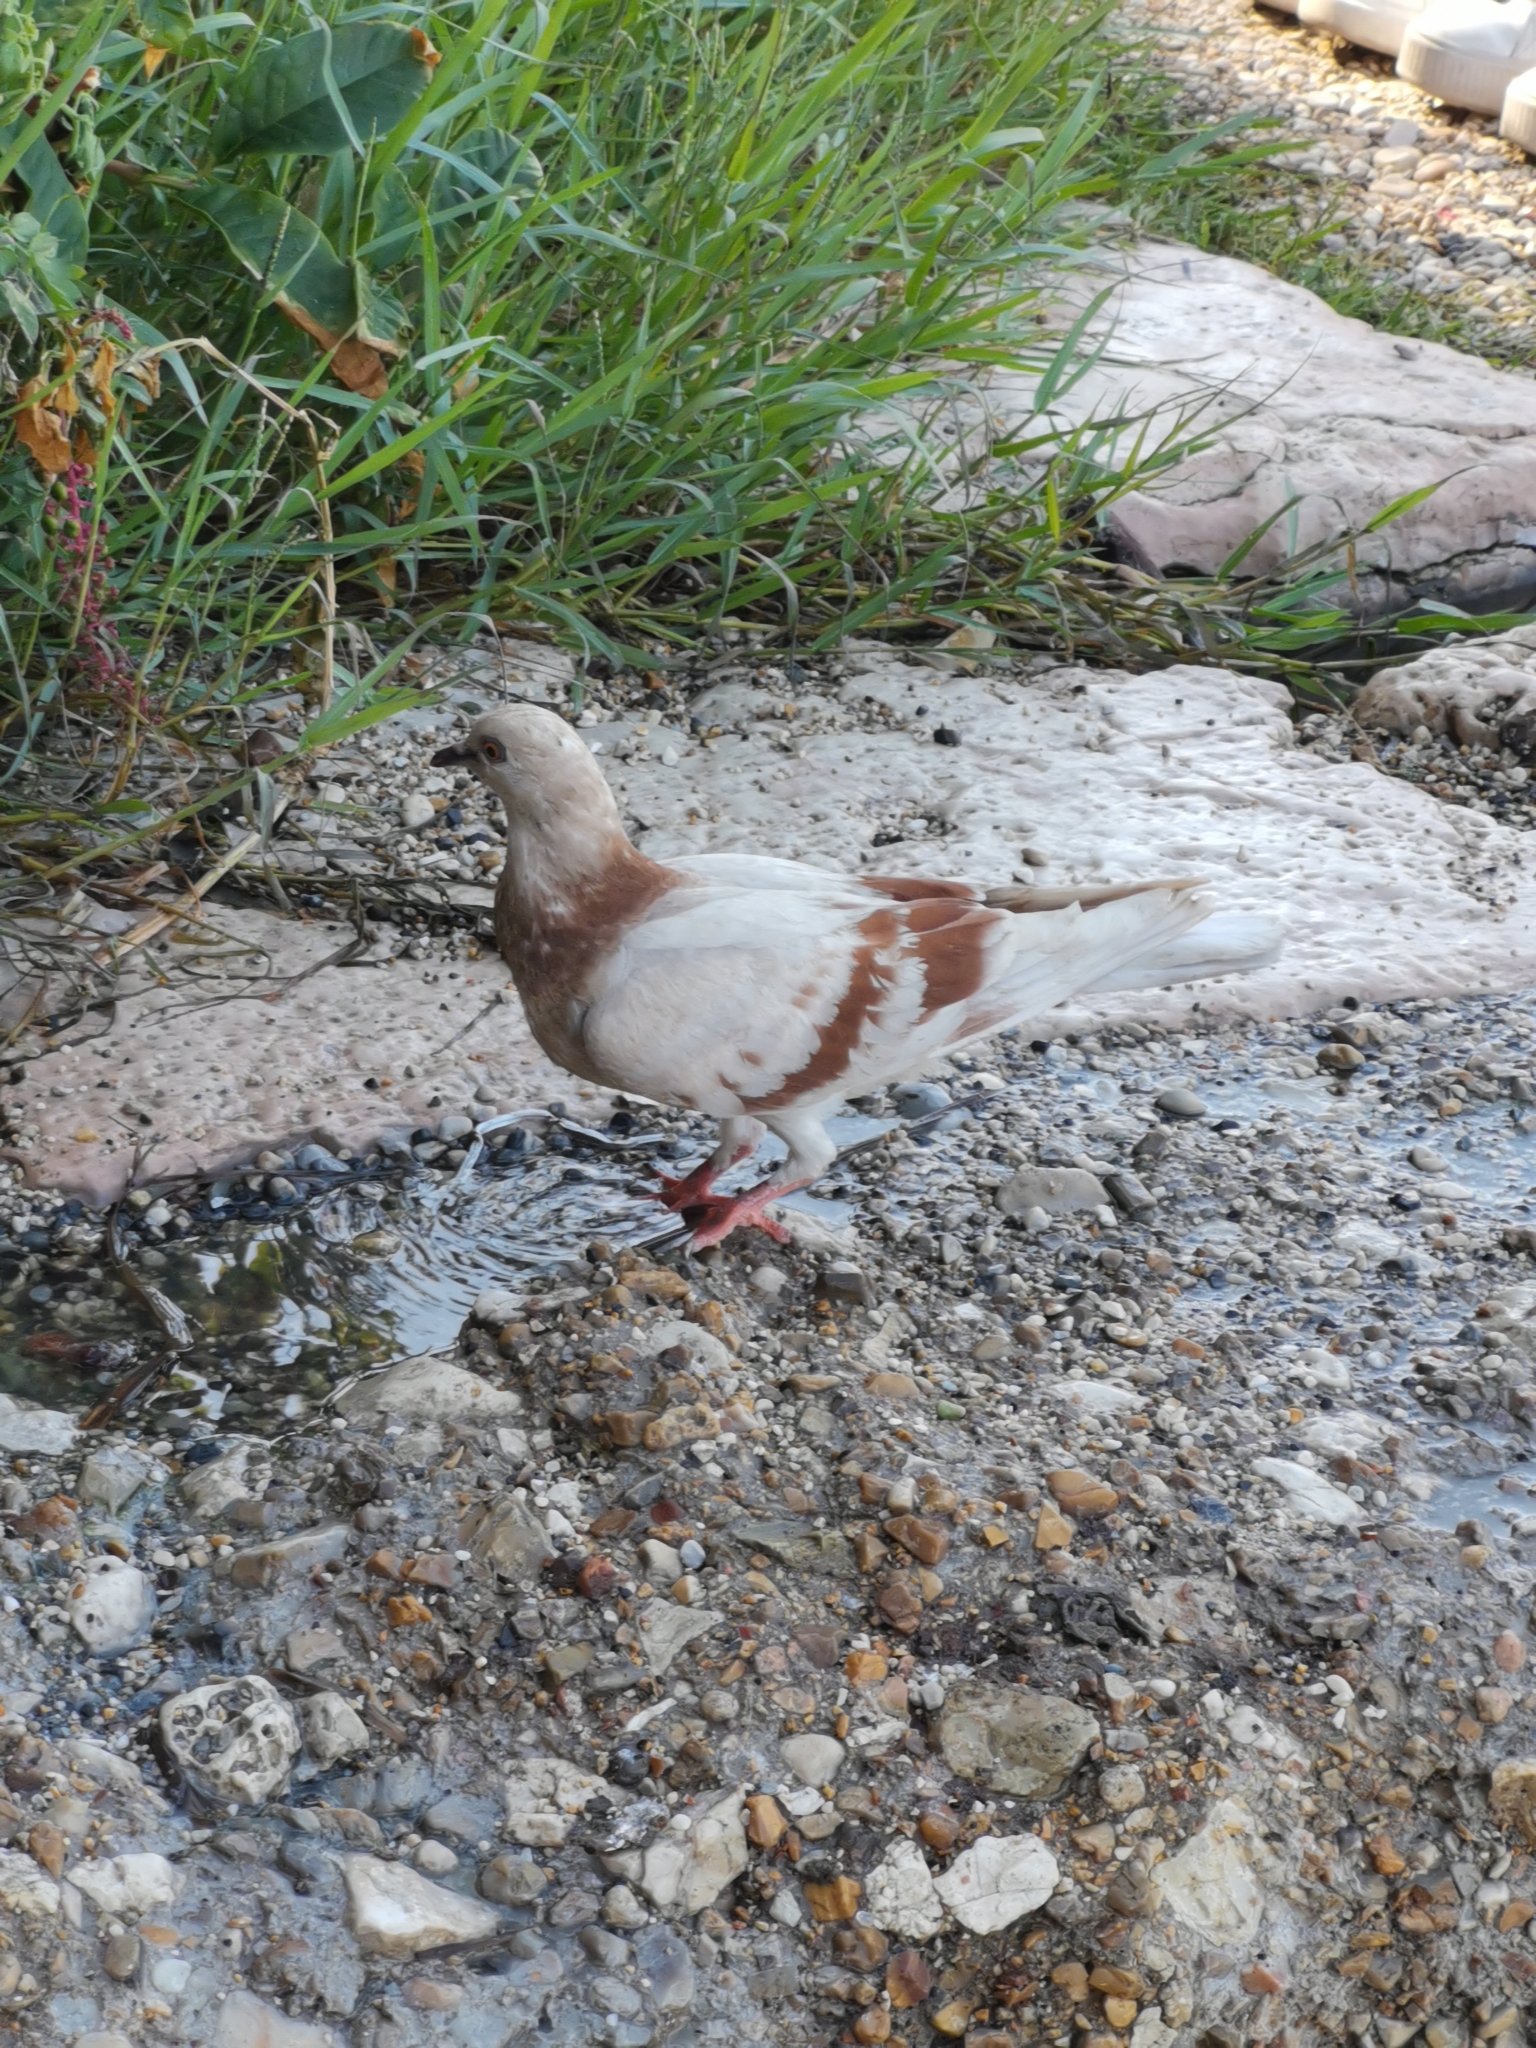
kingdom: Animalia
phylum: Chordata
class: Aves
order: Columbiformes
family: Columbidae
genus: Columba
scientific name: Columba livia
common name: Rock pigeon
